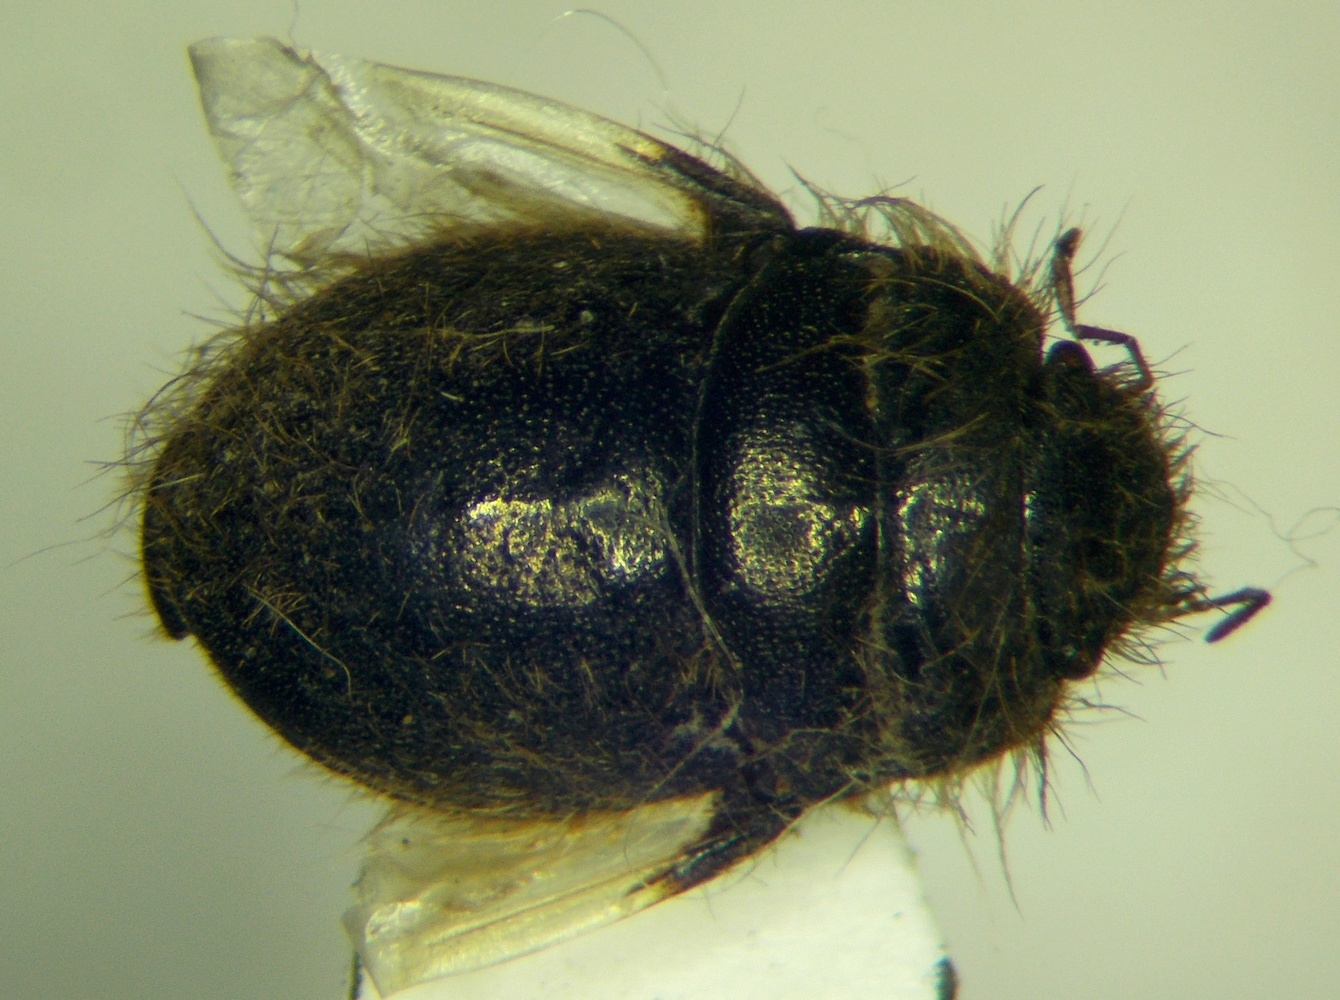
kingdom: Animalia
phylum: Arthropoda
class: Insecta
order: Hemiptera
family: Scutelleridae
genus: Irochrotus
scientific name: Irochrotus lanatus
